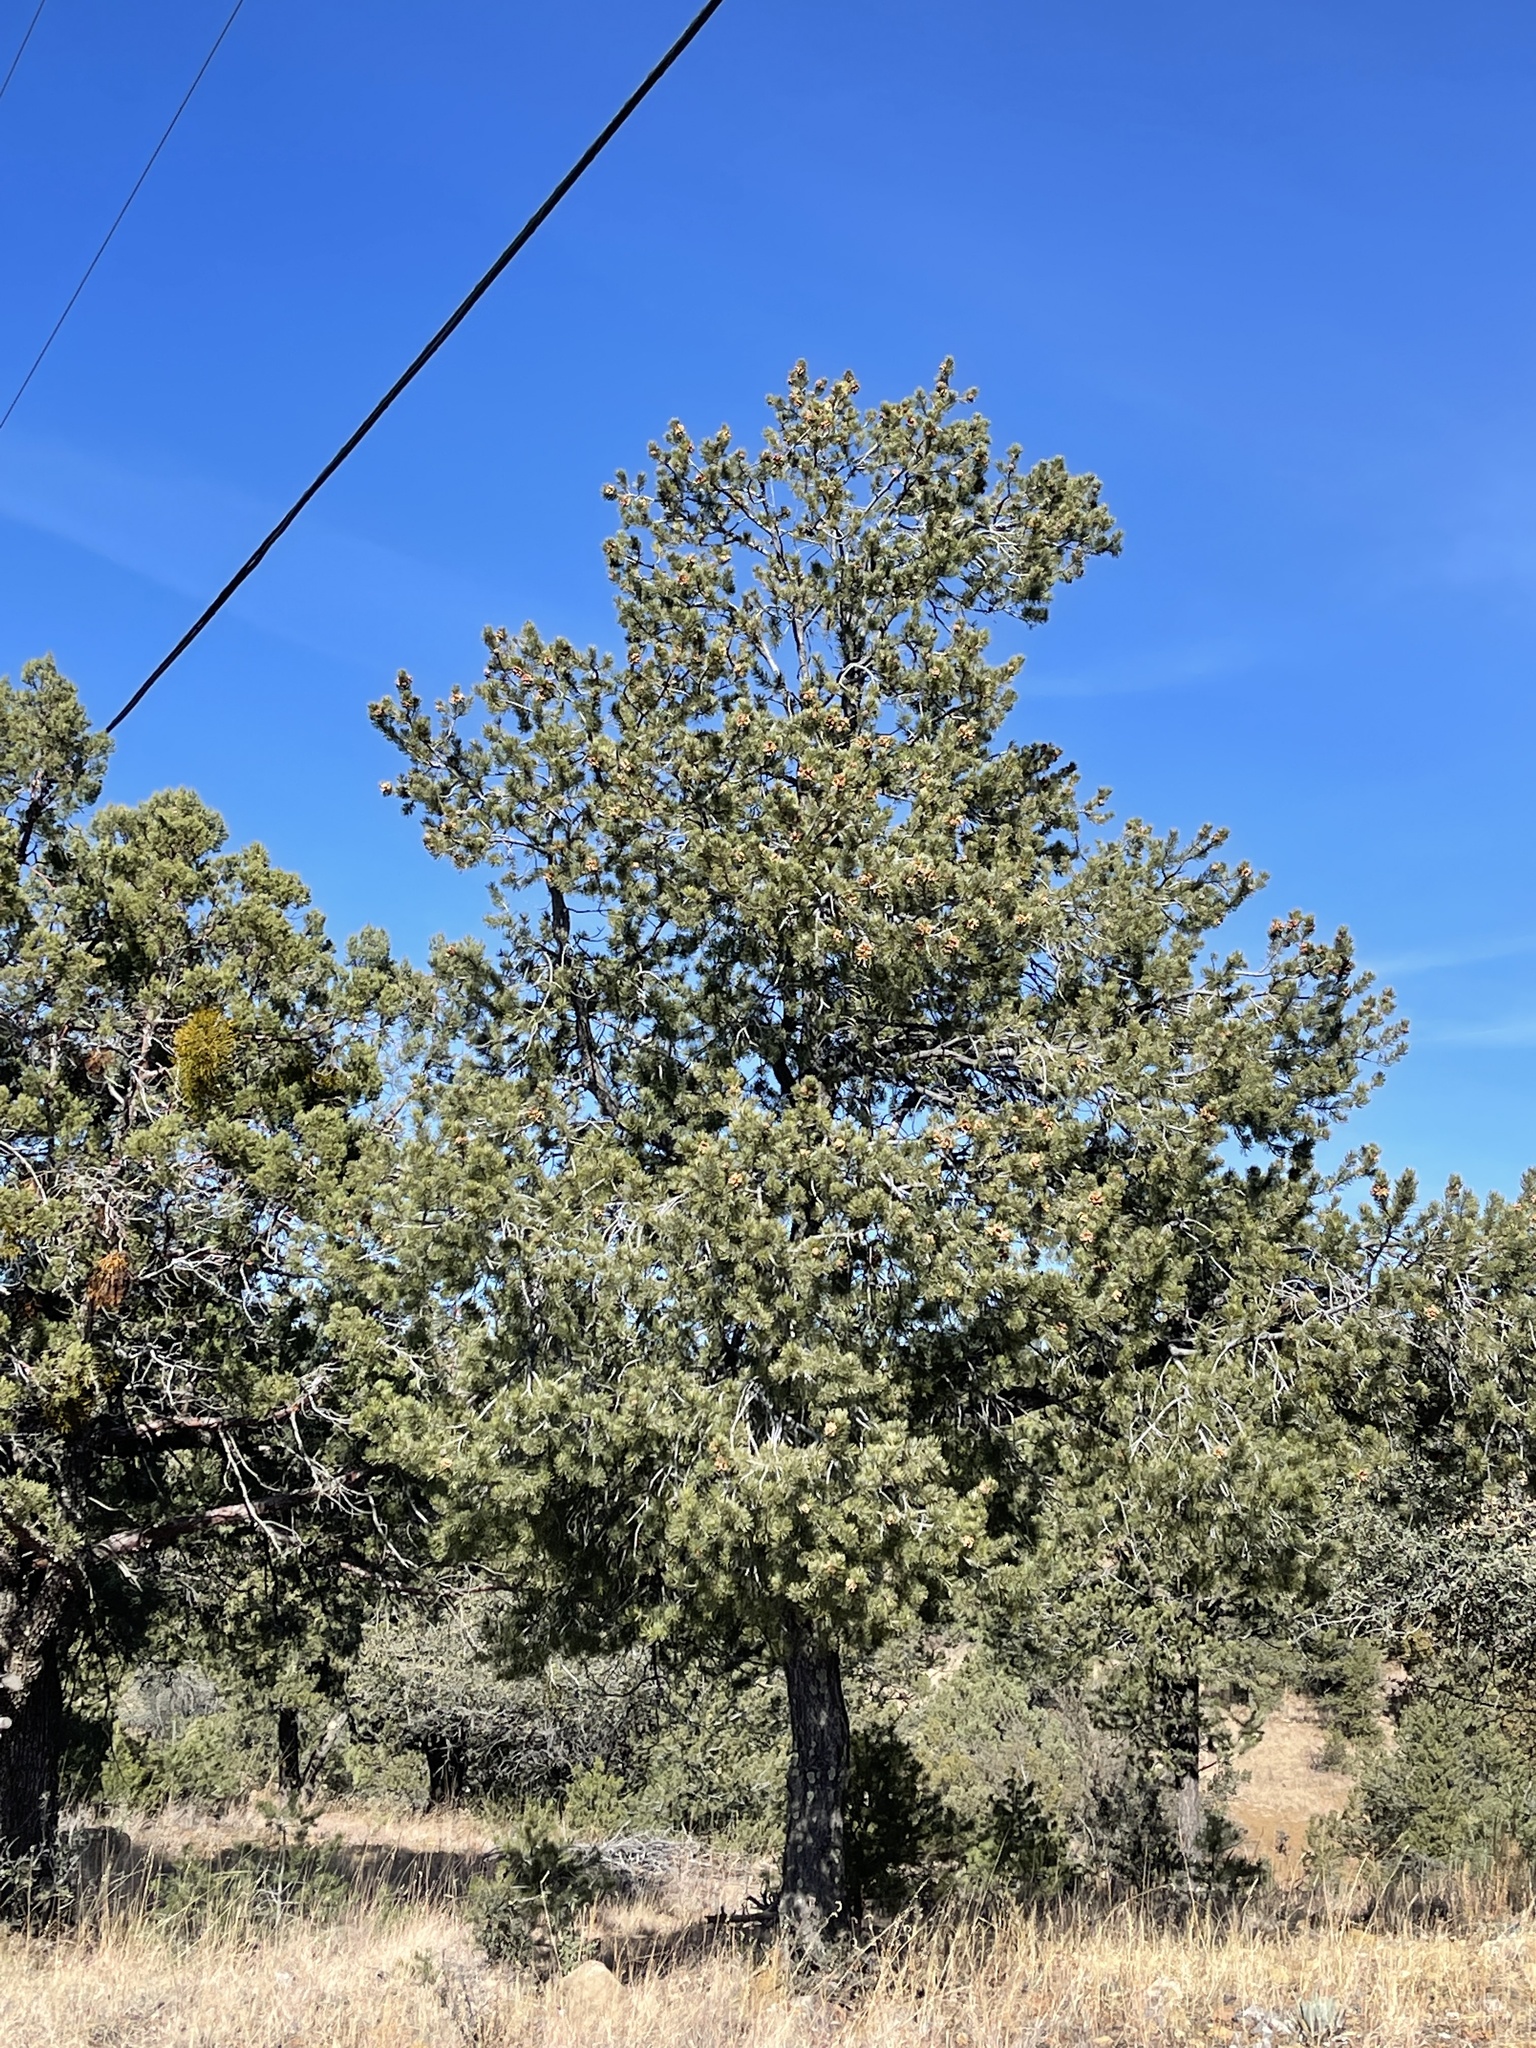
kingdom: Plantae
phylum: Tracheophyta
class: Pinopsida
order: Pinales
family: Pinaceae
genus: Pinus
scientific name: Pinus edulis
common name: Colorado pinyon
